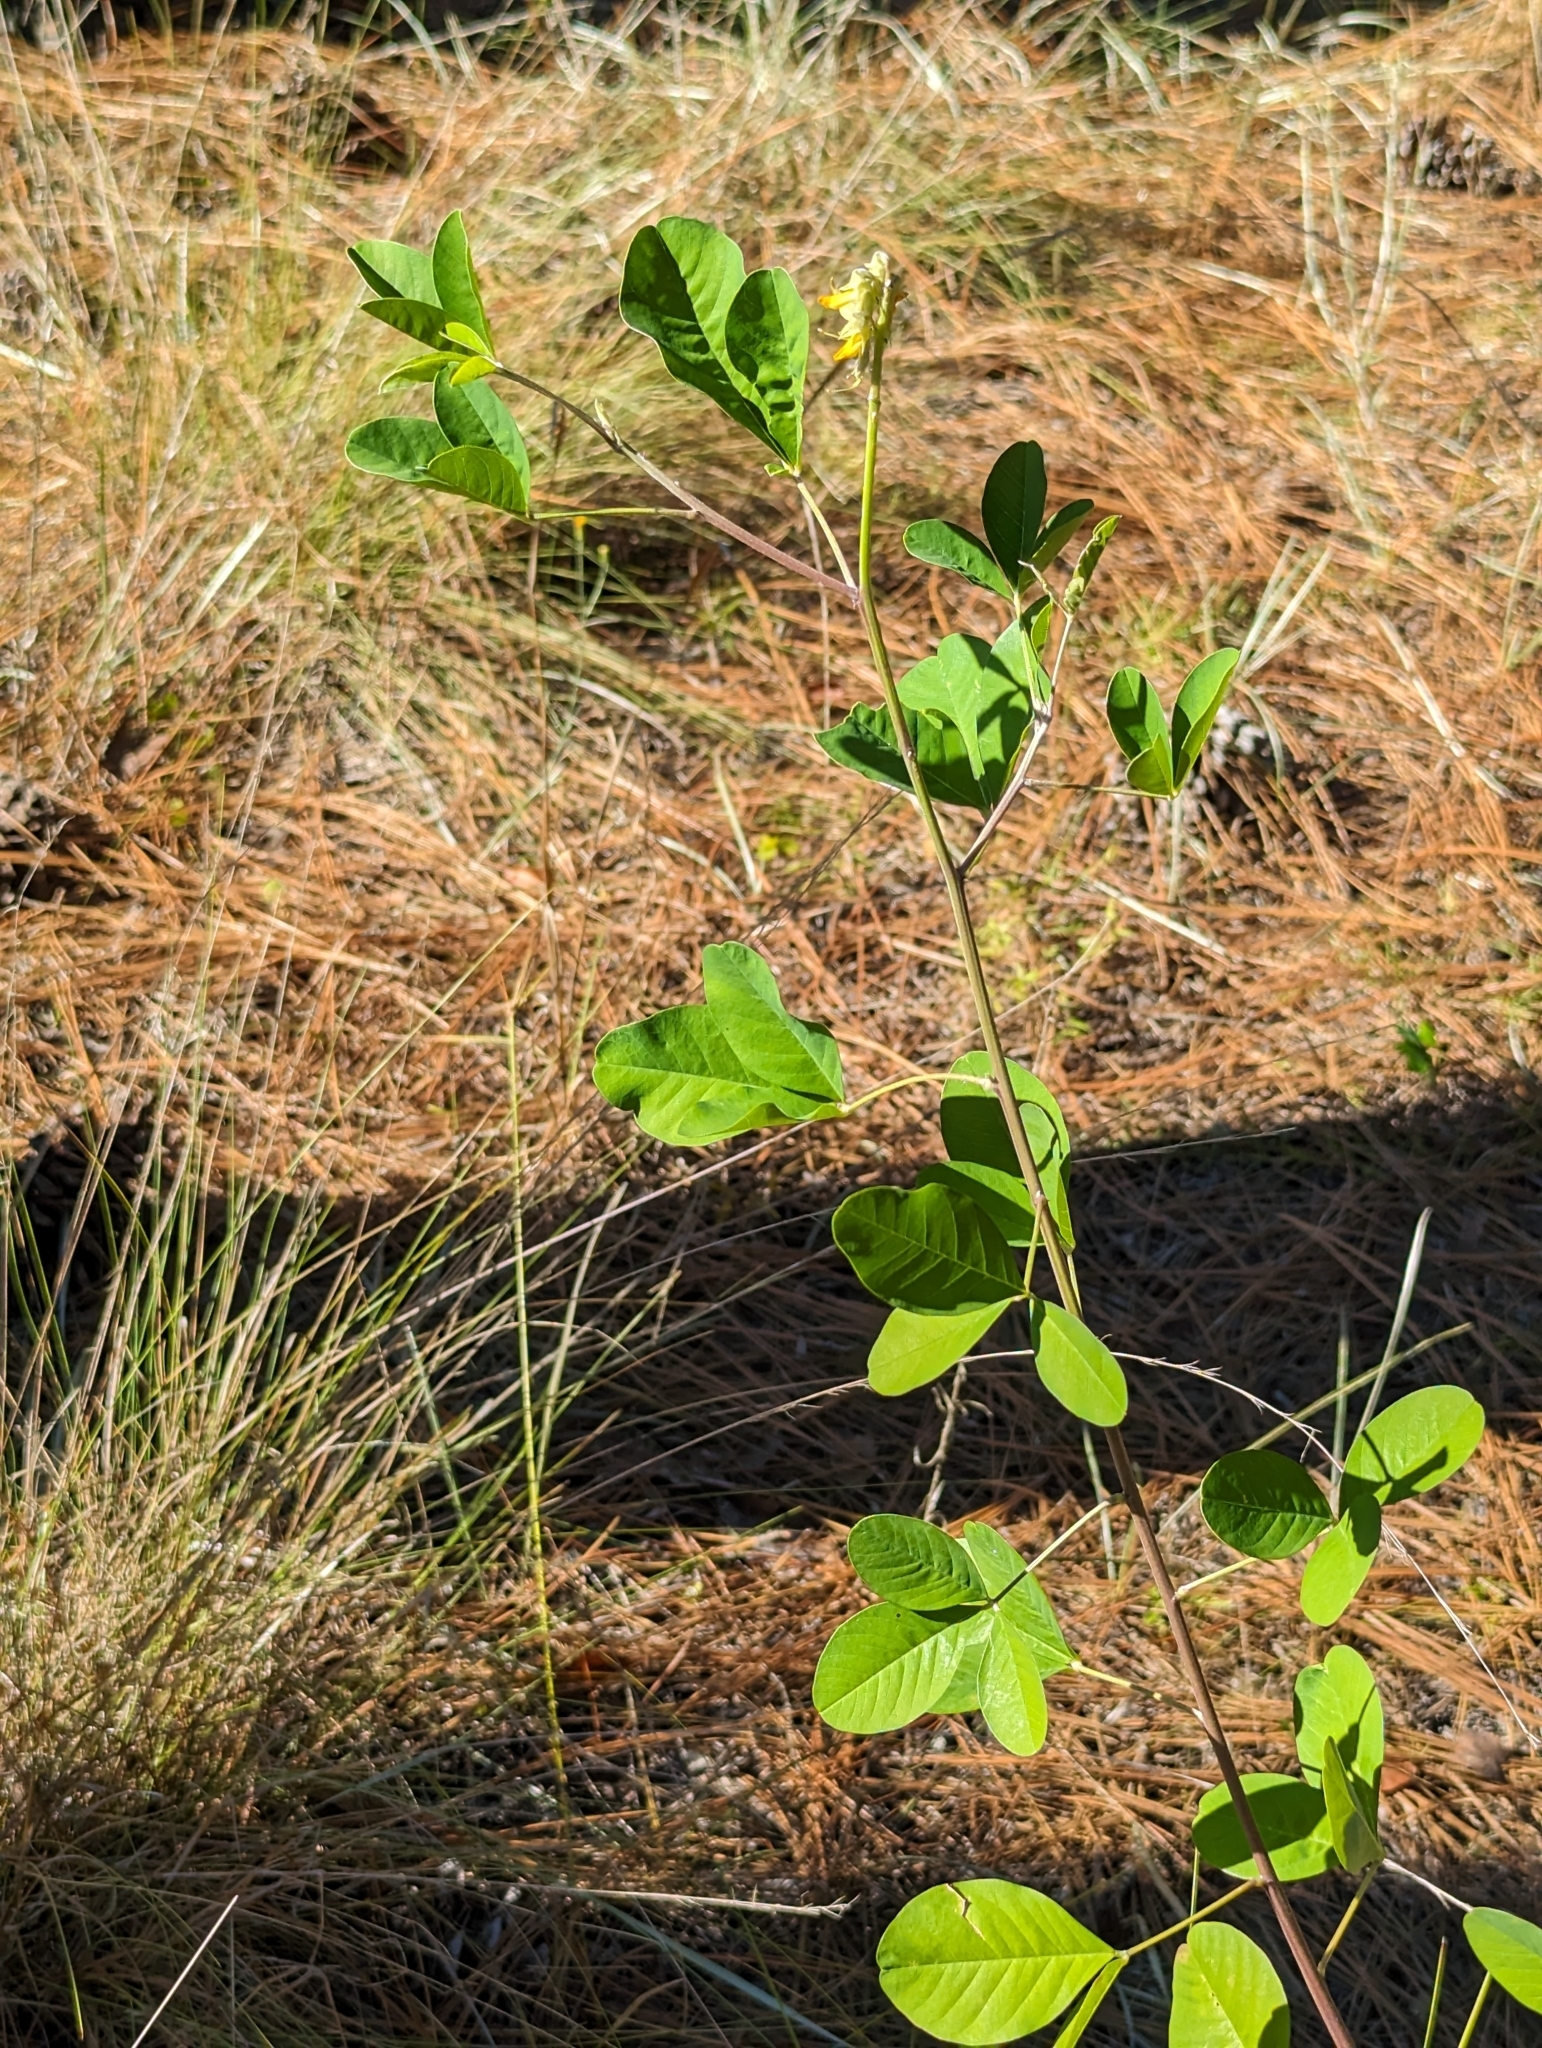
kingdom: Plantae
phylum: Tracheophyta
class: Magnoliopsida
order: Fabales
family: Fabaceae
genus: Crotalaria
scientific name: Crotalaria pallida
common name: Smooth rattlebox
